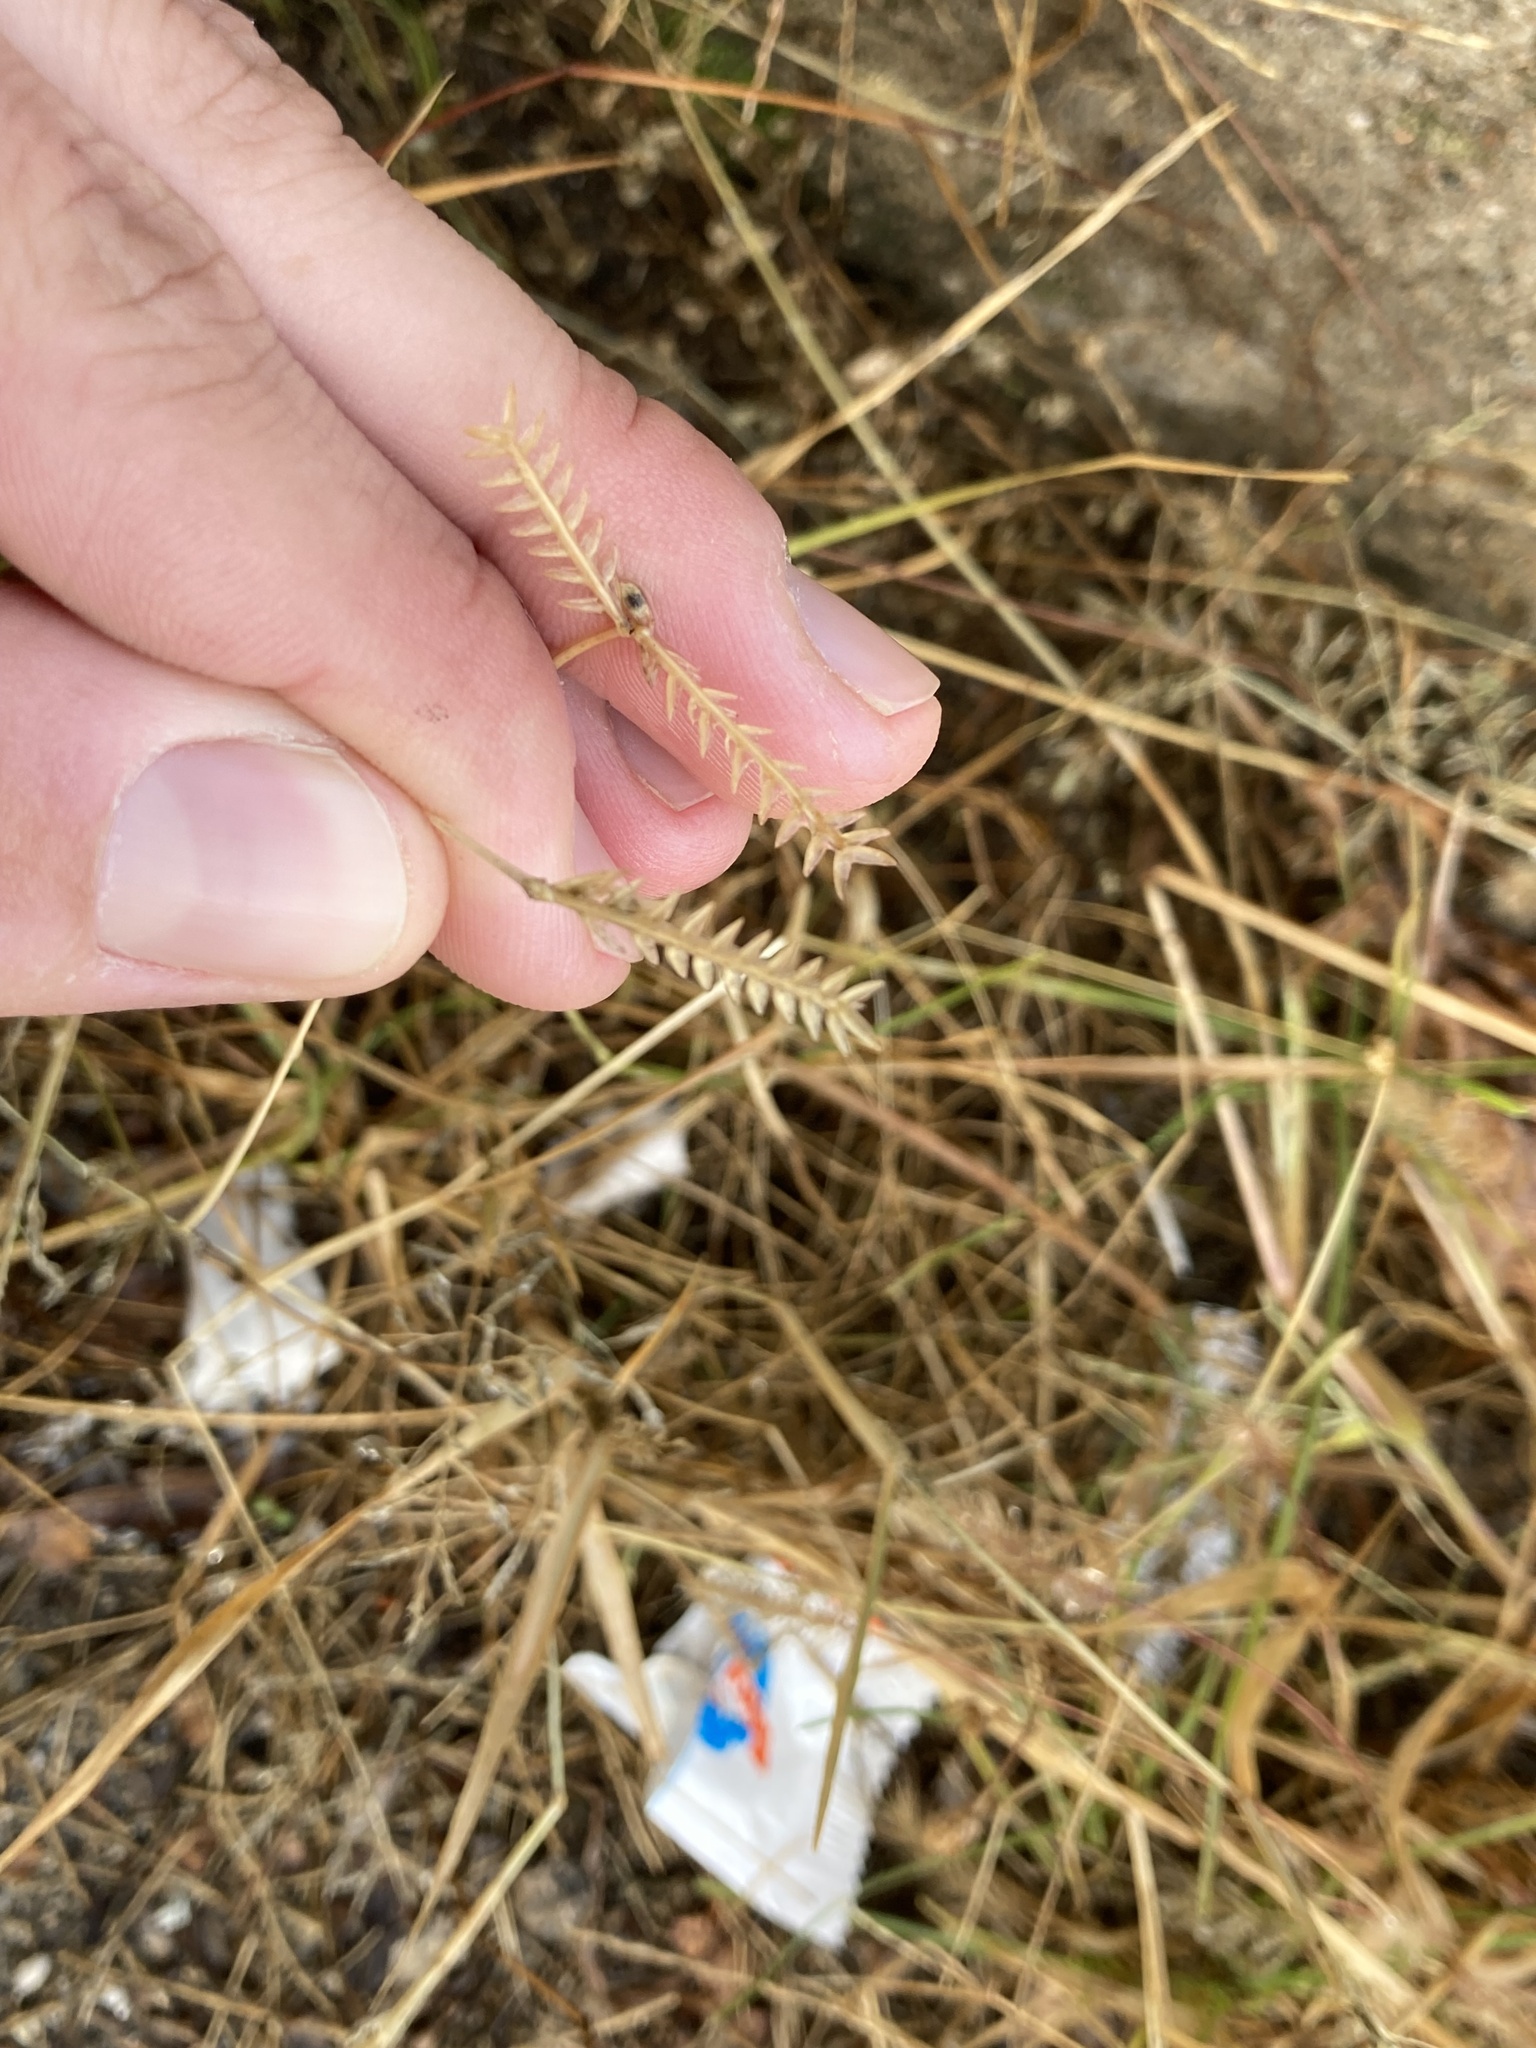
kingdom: Plantae
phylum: Tracheophyta
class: Liliopsida
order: Poales
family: Poaceae
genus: Eleusine
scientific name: Eleusine tristachya
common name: American yard-grass
